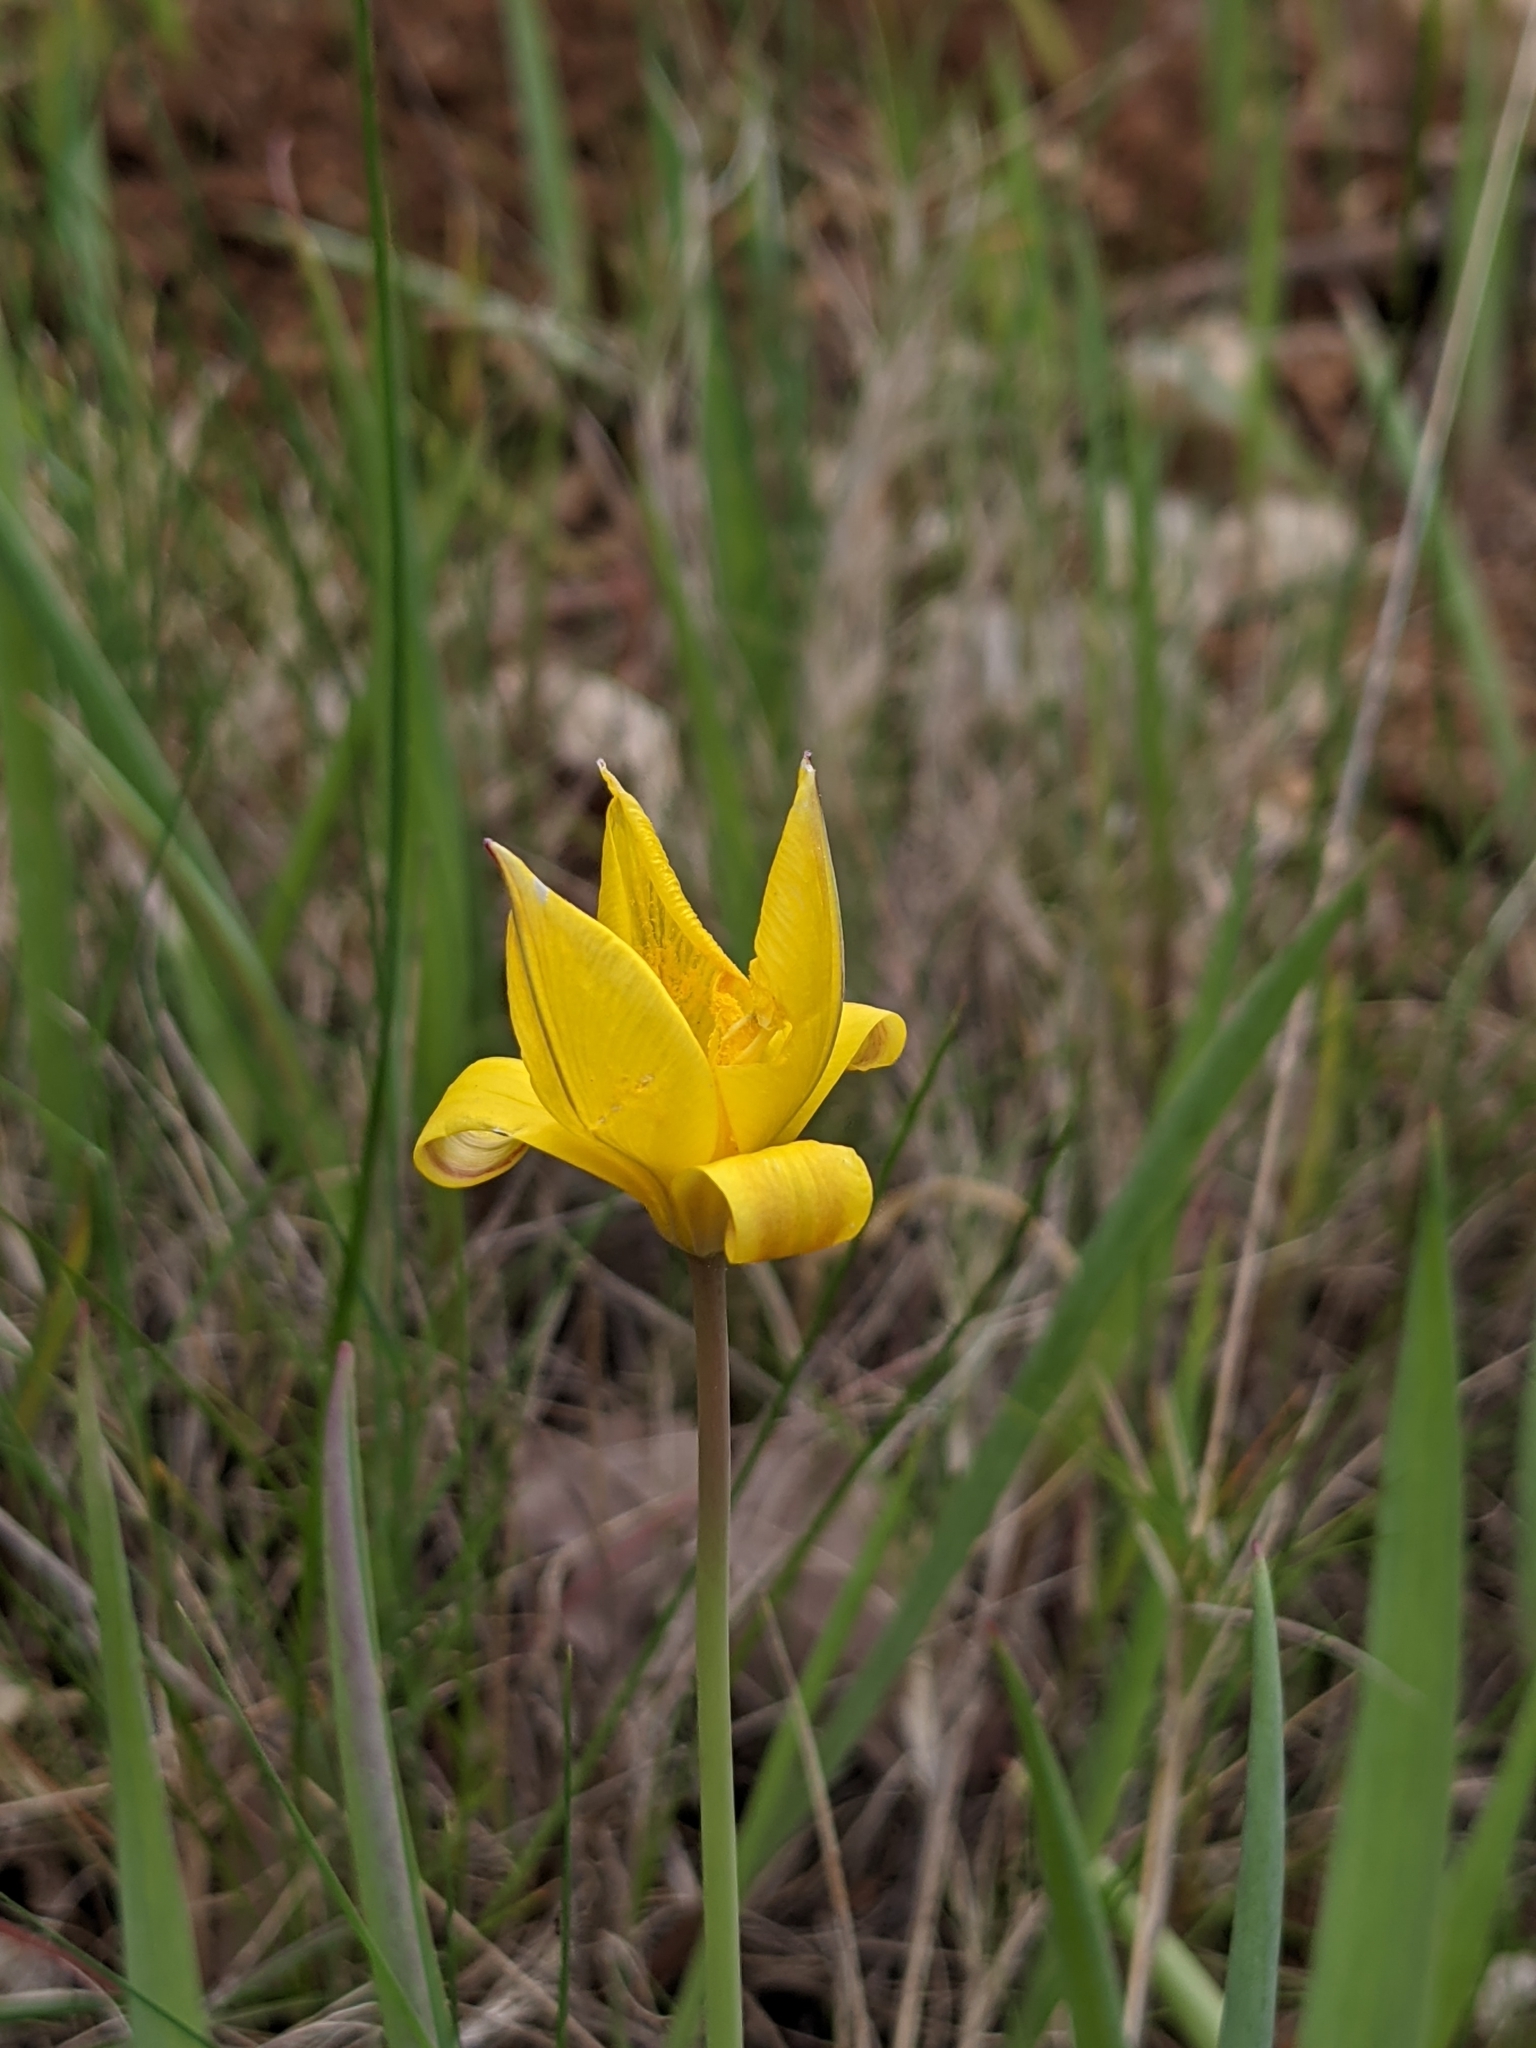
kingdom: Plantae
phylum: Tracheophyta
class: Liliopsida
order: Liliales
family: Liliaceae
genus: Tulipa
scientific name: Tulipa sylvestris
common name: Wild tulip
